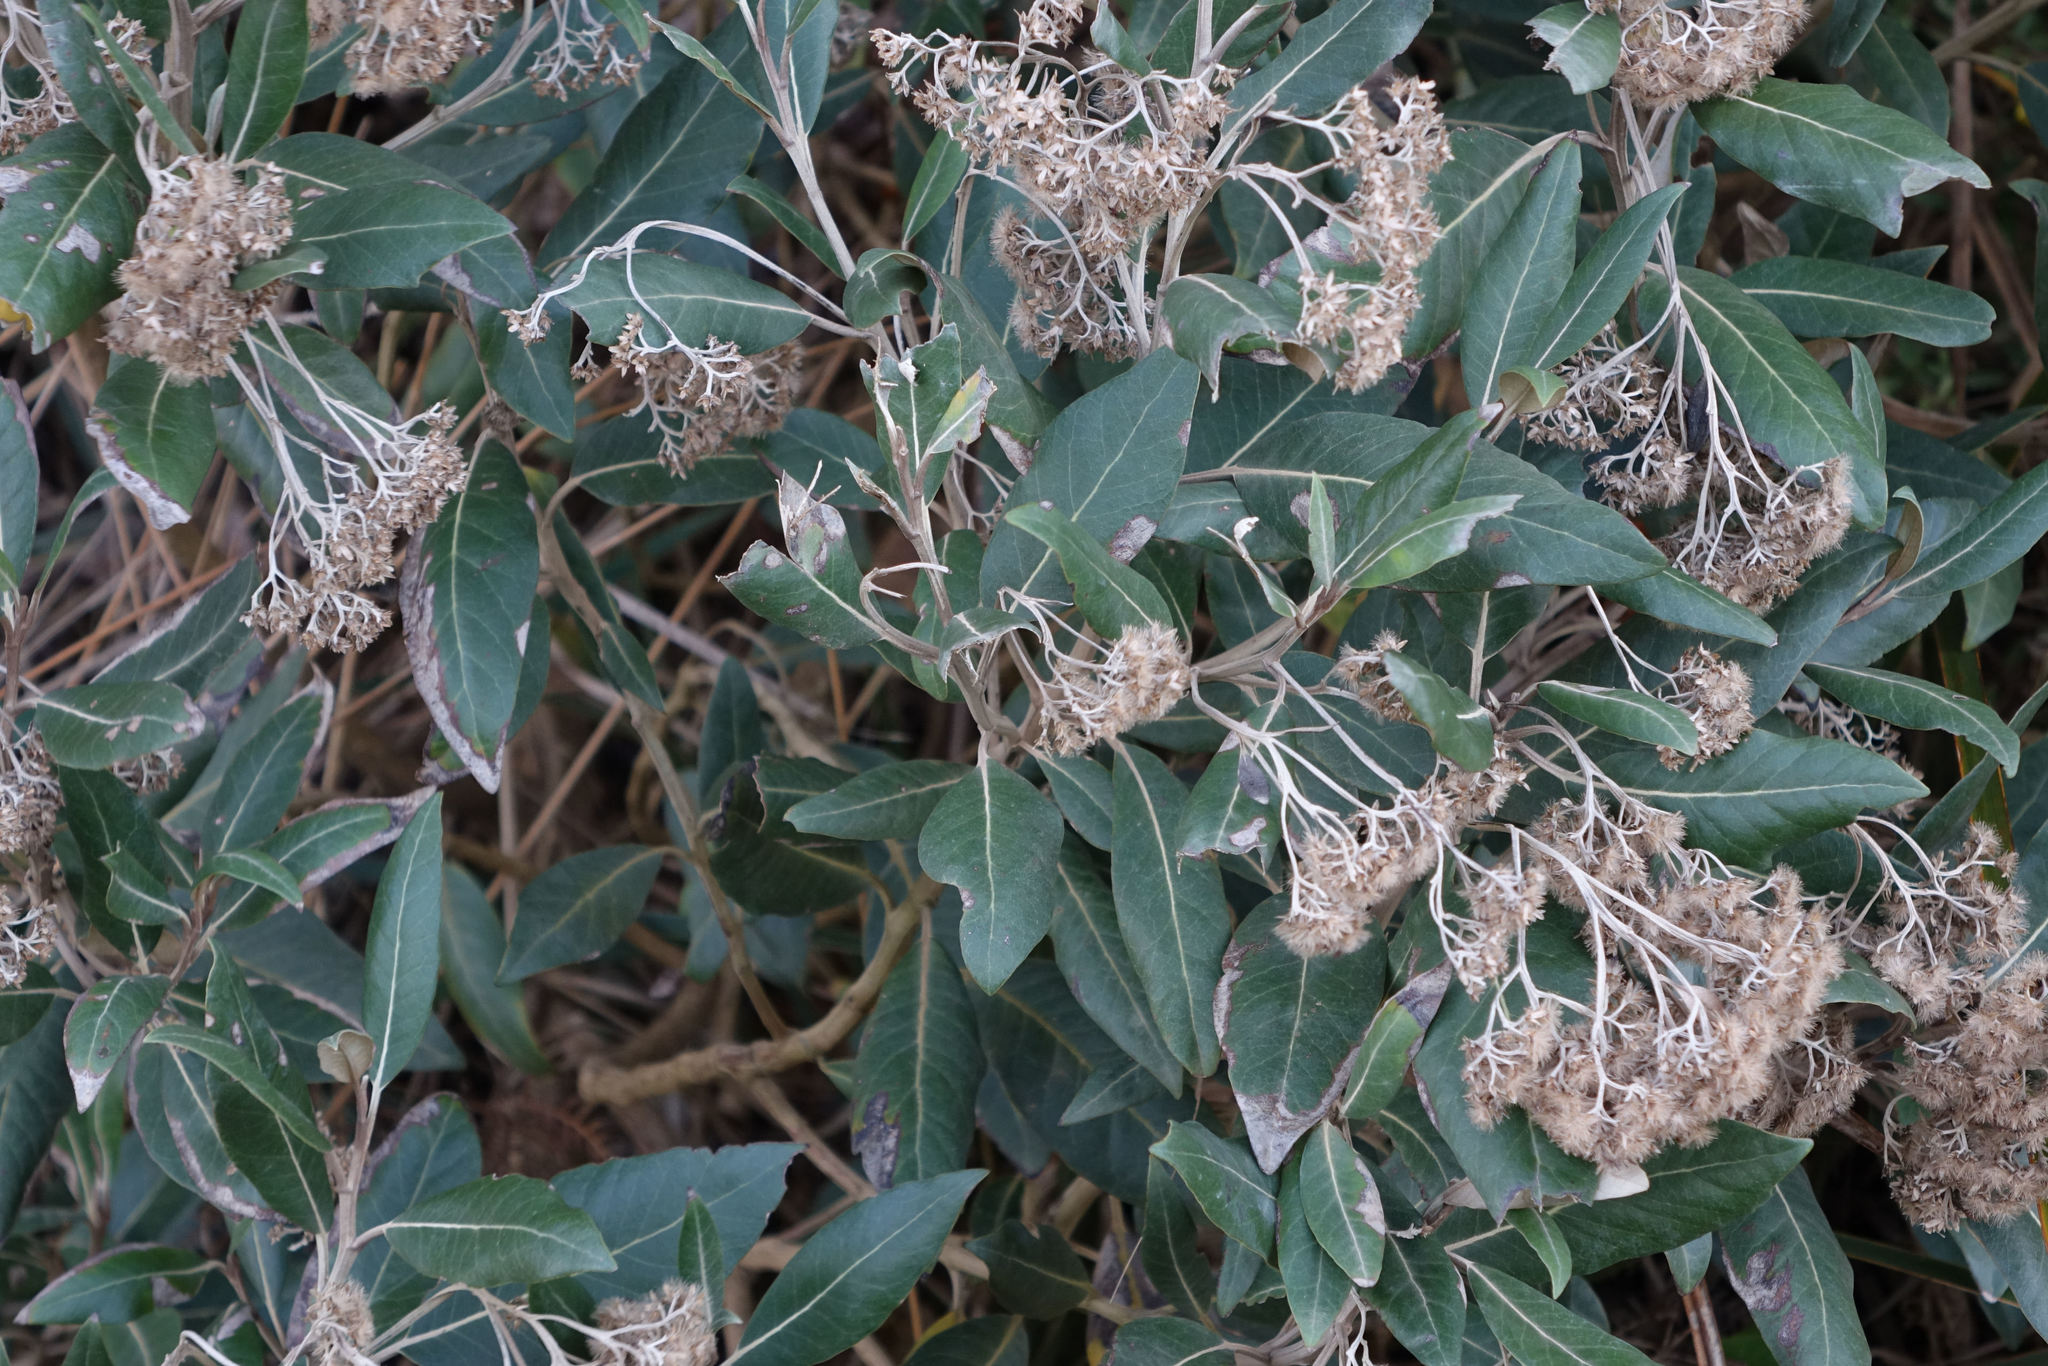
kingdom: Plantae
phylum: Tracheophyta
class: Magnoliopsida
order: Asterales
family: Asteraceae
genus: Olearia
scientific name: Olearia avicenniifolia
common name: Mangrove-leaf daisybush
